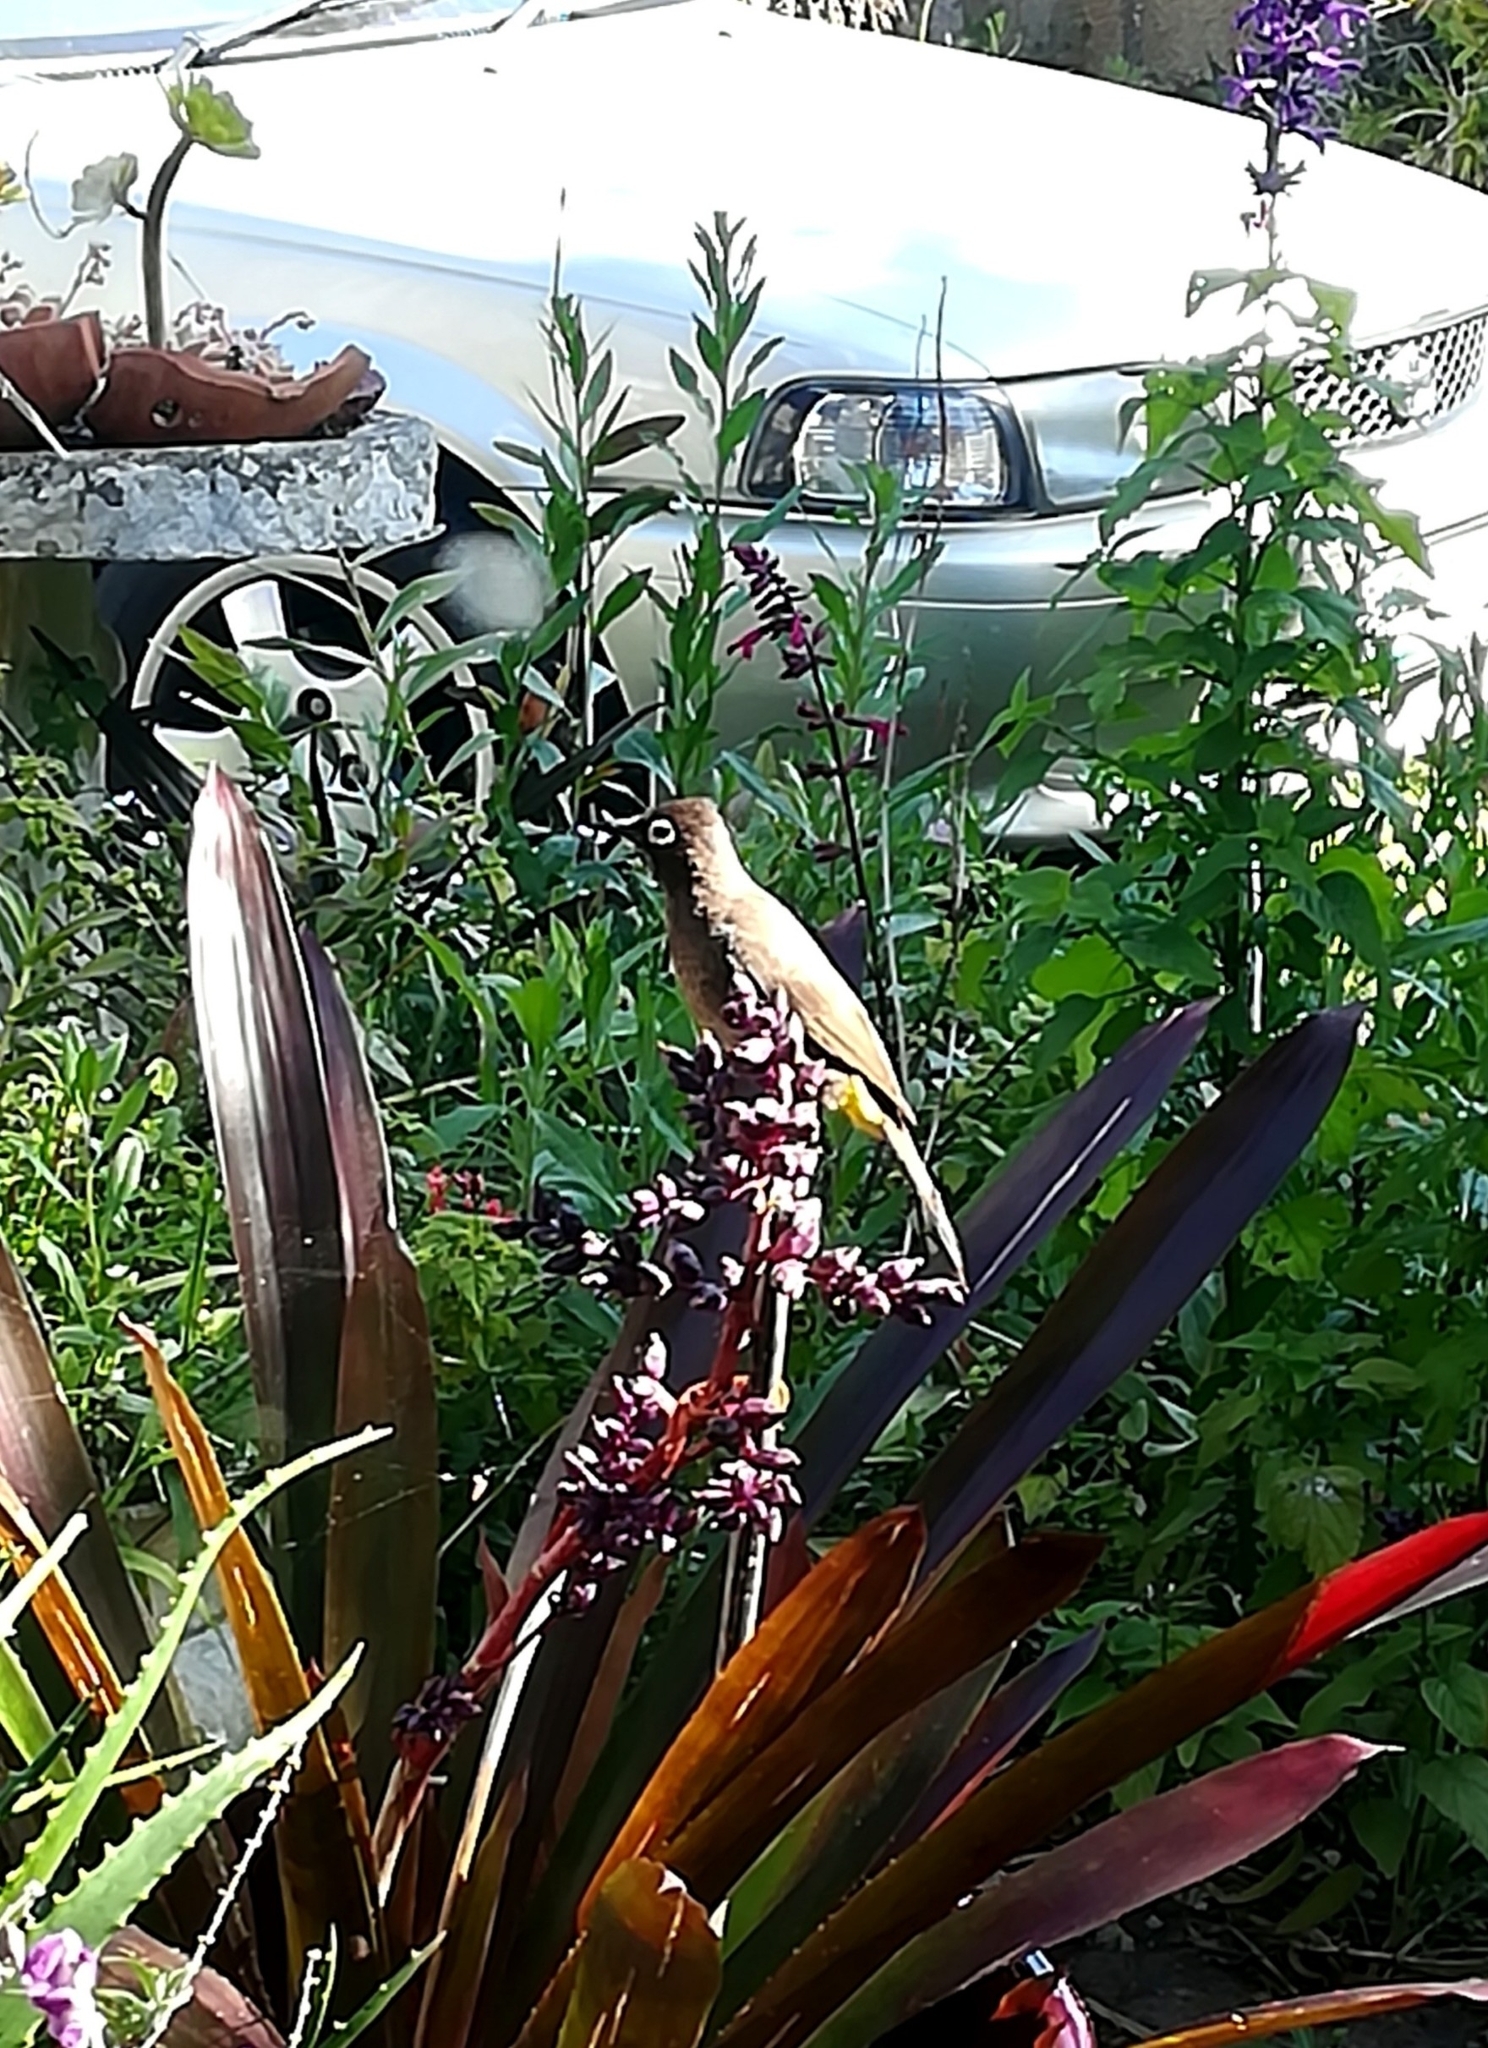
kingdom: Animalia
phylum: Chordata
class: Aves
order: Passeriformes
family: Pycnonotidae
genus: Pycnonotus
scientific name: Pycnonotus capensis
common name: Cape bulbul
